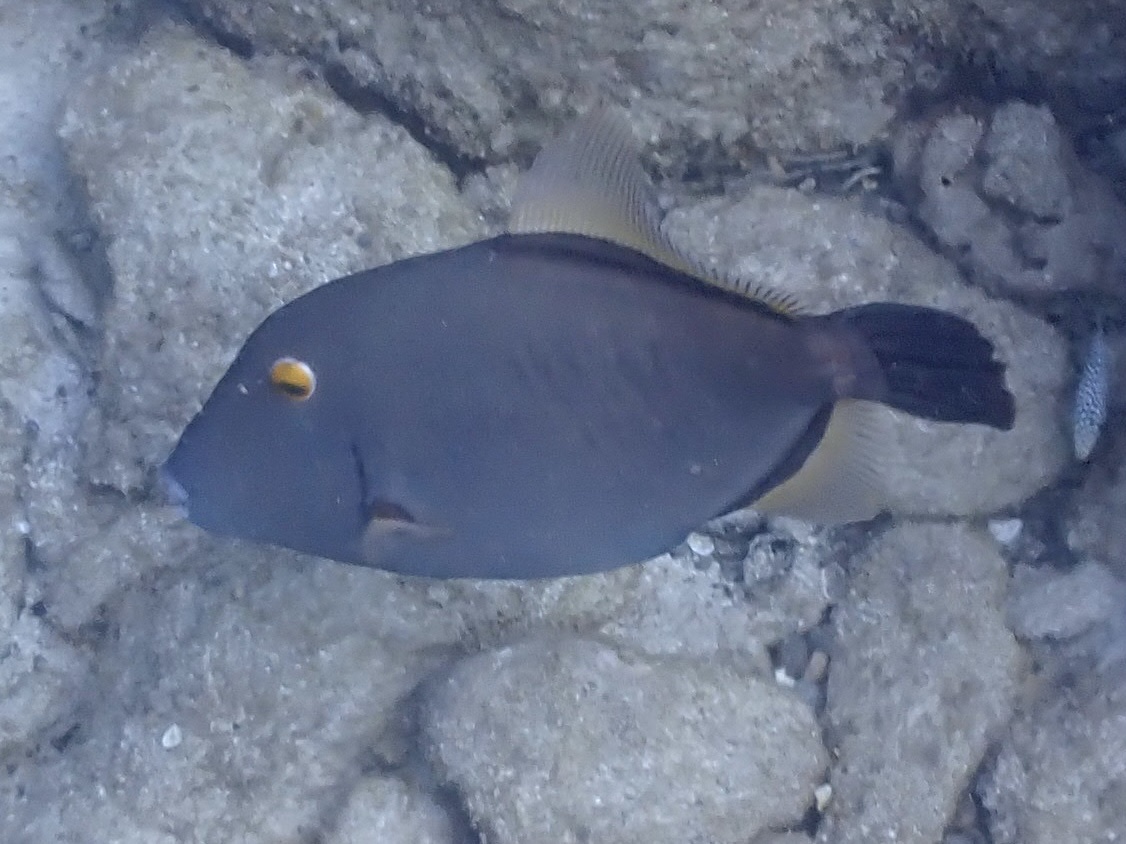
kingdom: Animalia
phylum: Chordata
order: Tetraodontiformes
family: Monacanthidae
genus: Cantherhines
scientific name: Cantherhines dumerilii
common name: Barred filefish
